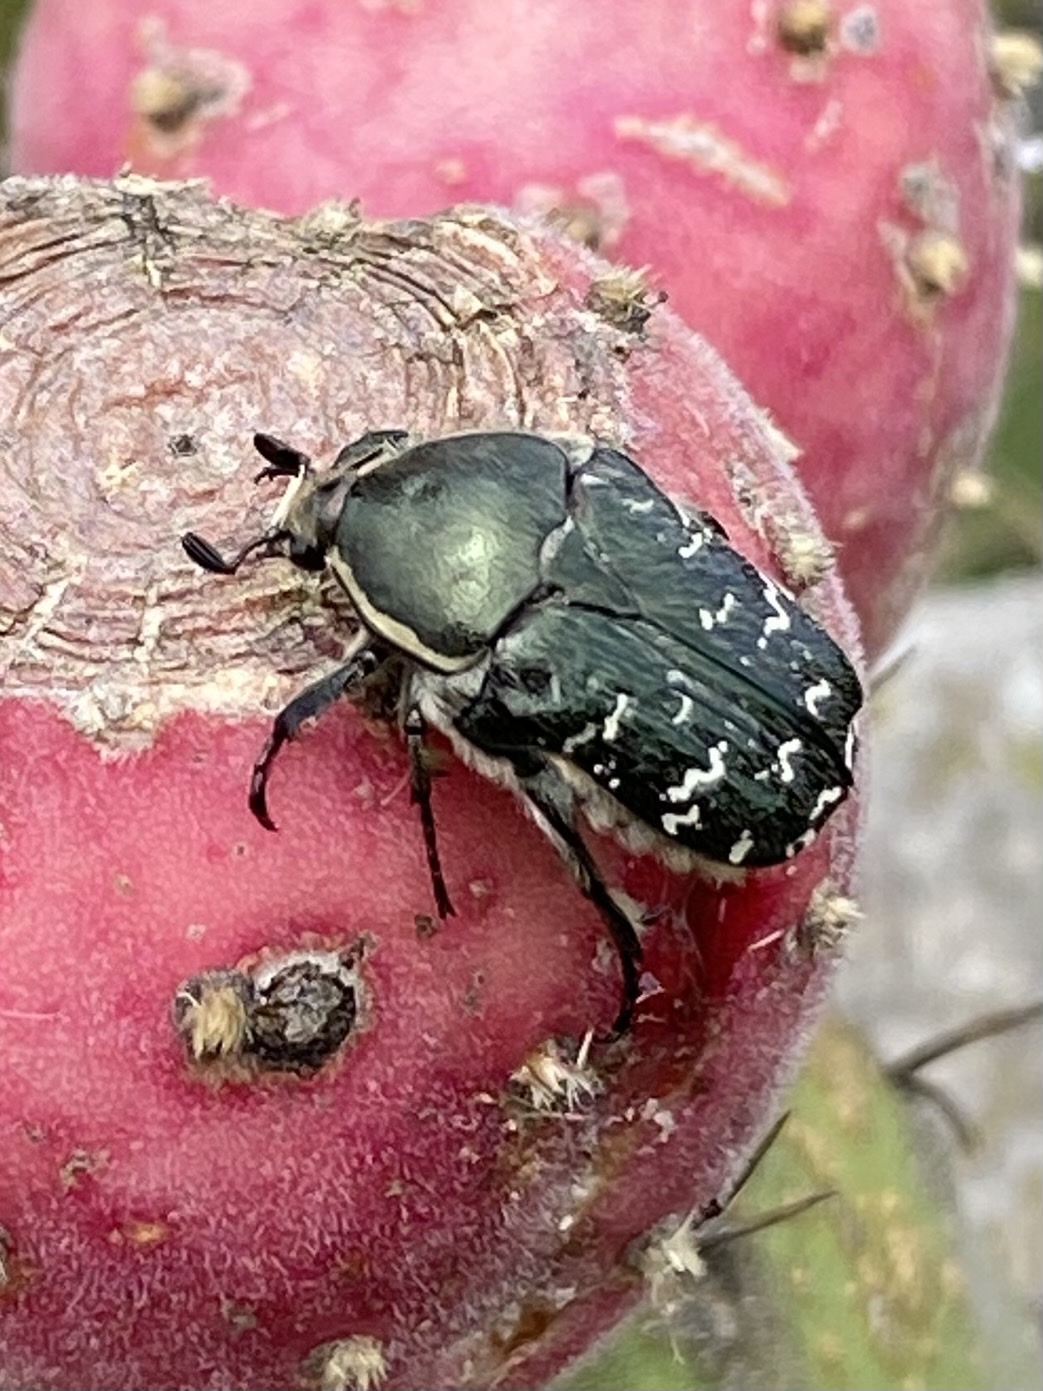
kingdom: Animalia
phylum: Arthropoda
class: Insecta
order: Coleoptera
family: Scarabaeidae
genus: Euphoria
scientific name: Euphoria leucographa
